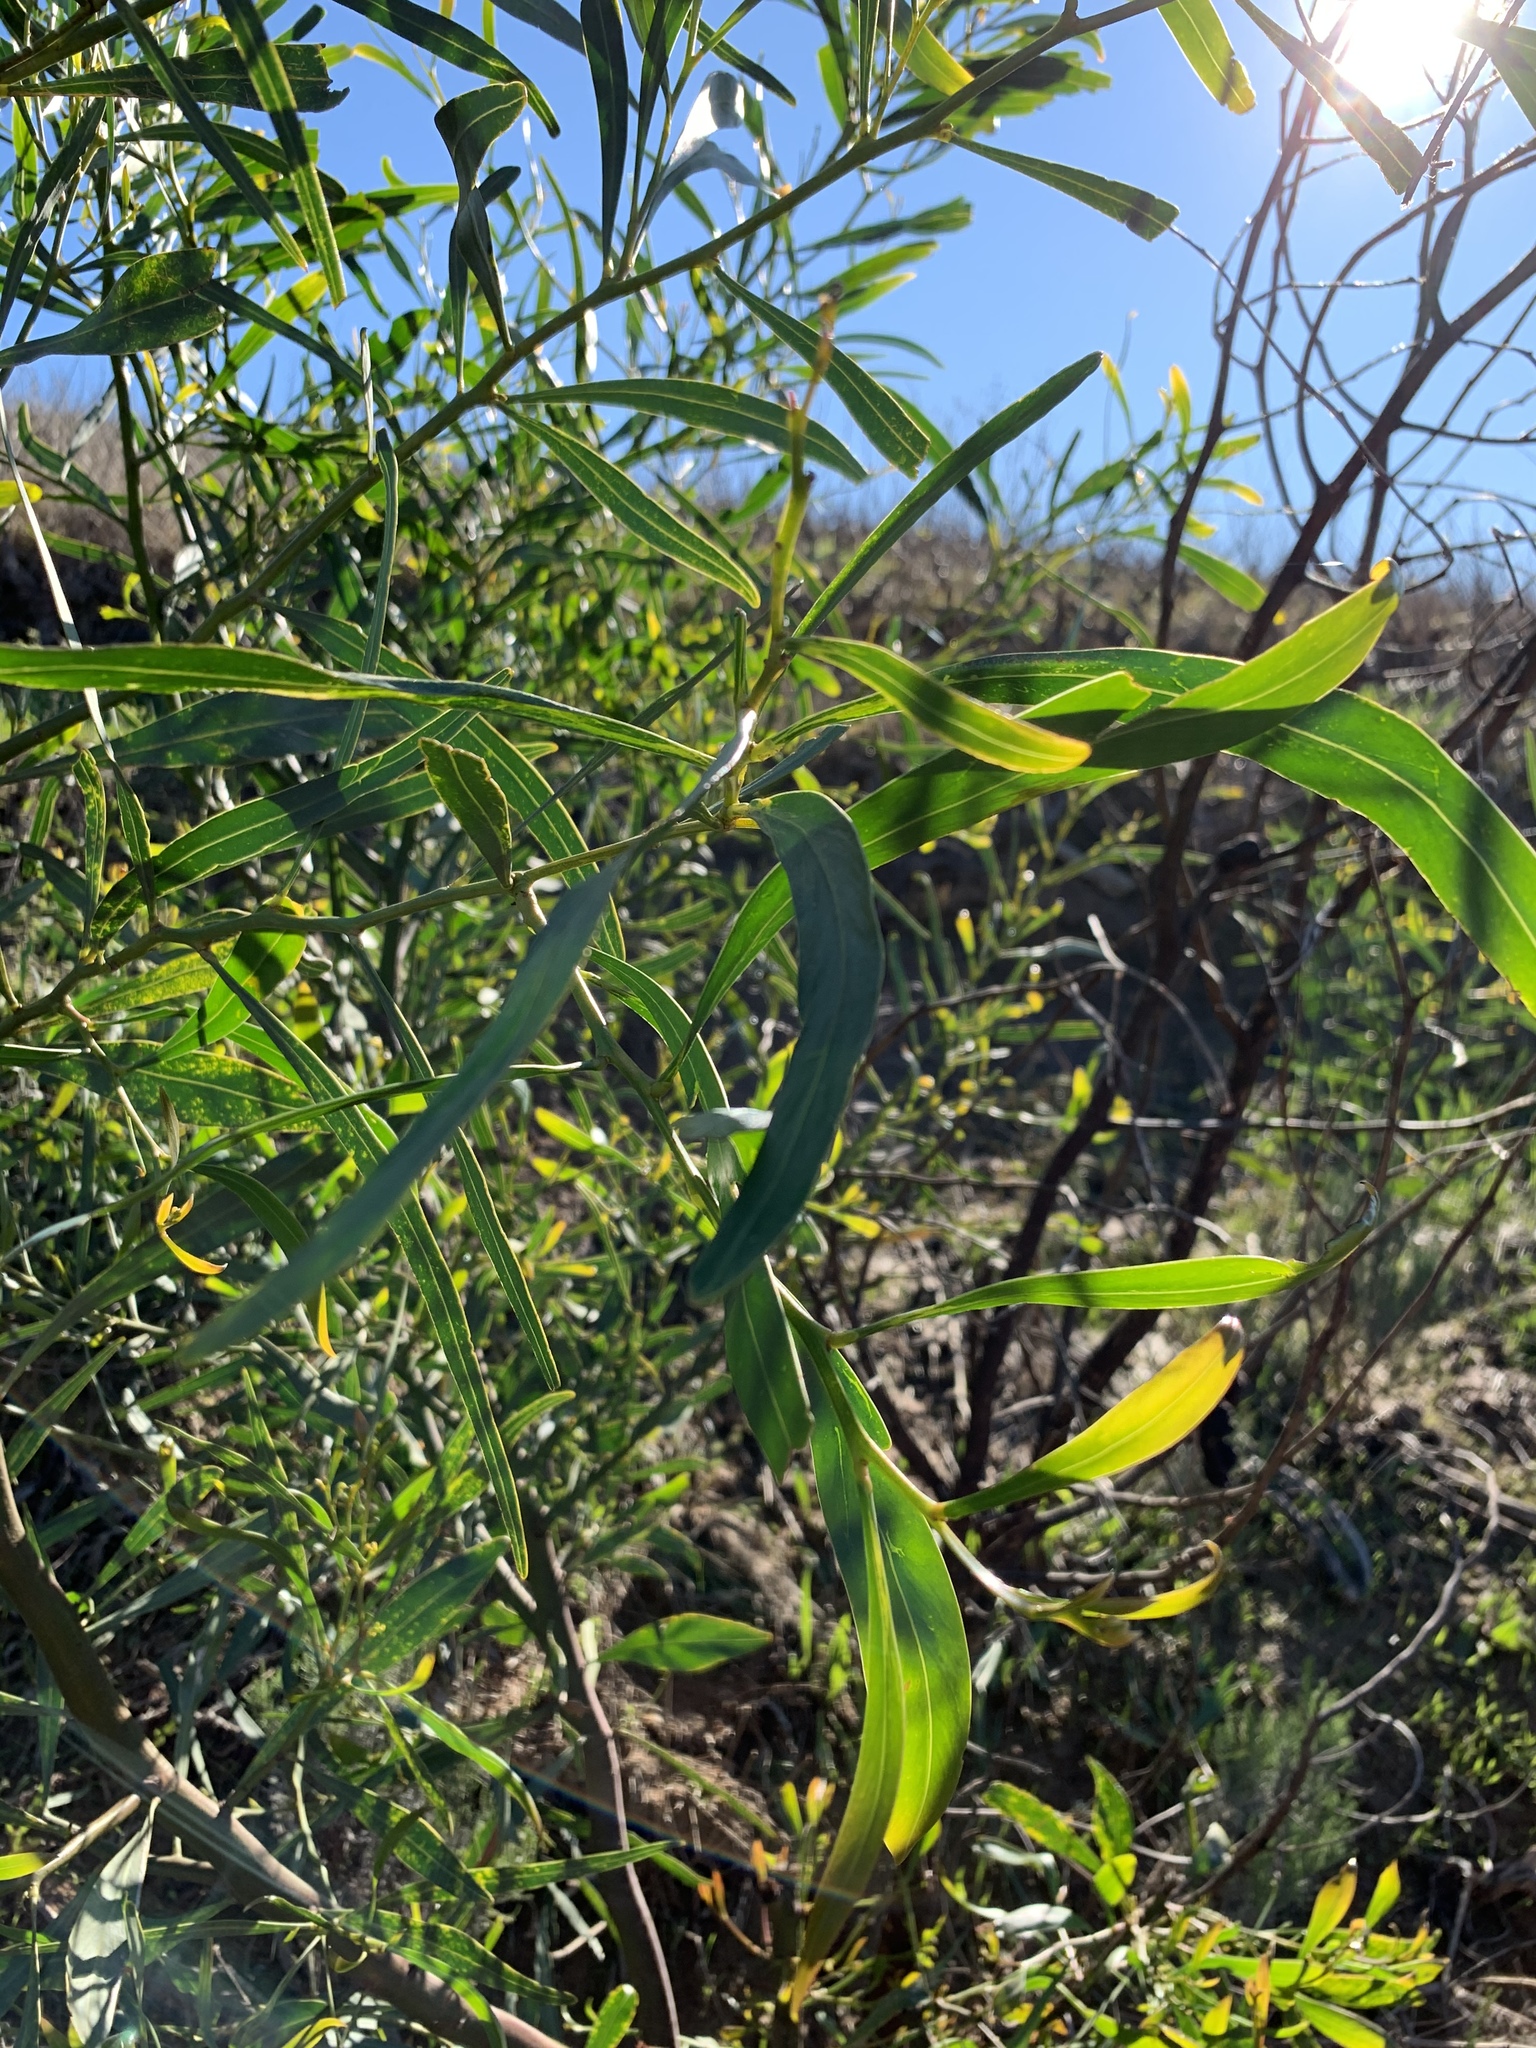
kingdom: Plantae
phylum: Tracheophyta
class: Magnoliopsida
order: Fabales
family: Fabaceae
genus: Acacia
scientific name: Acacia saligna
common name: Orange wattle
